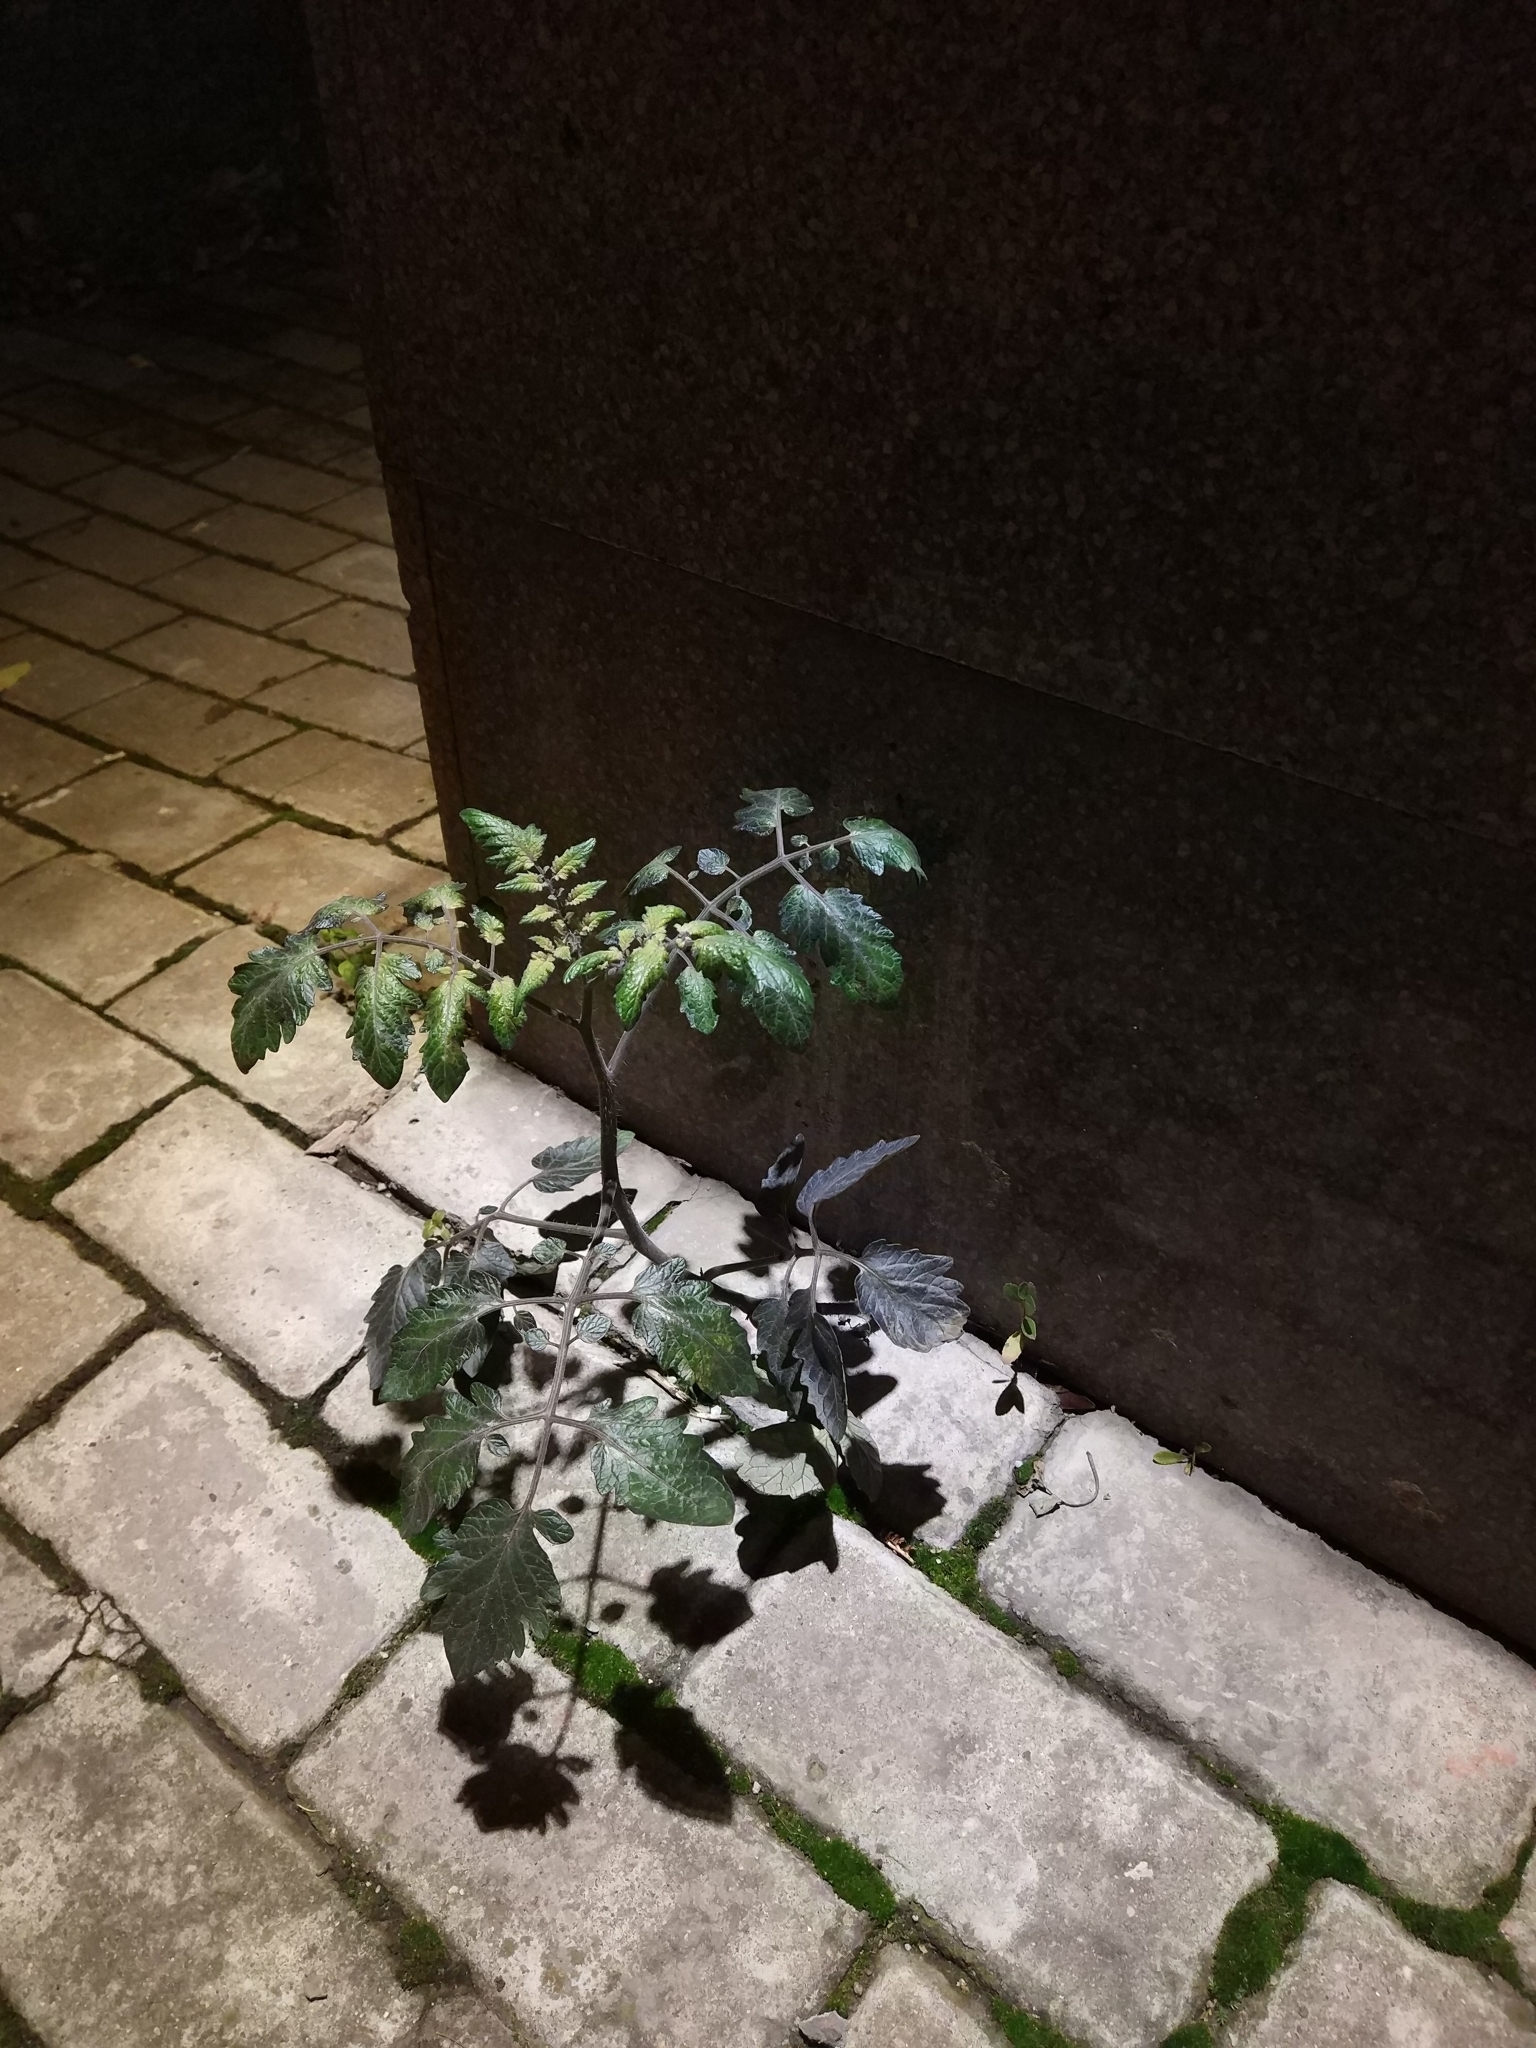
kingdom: Plantae
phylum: Tracheophyta
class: Magnoliopsida
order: Solanales
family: Solanaceae
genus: Solanum
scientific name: Solanum lycopersicum
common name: Garden tomato
